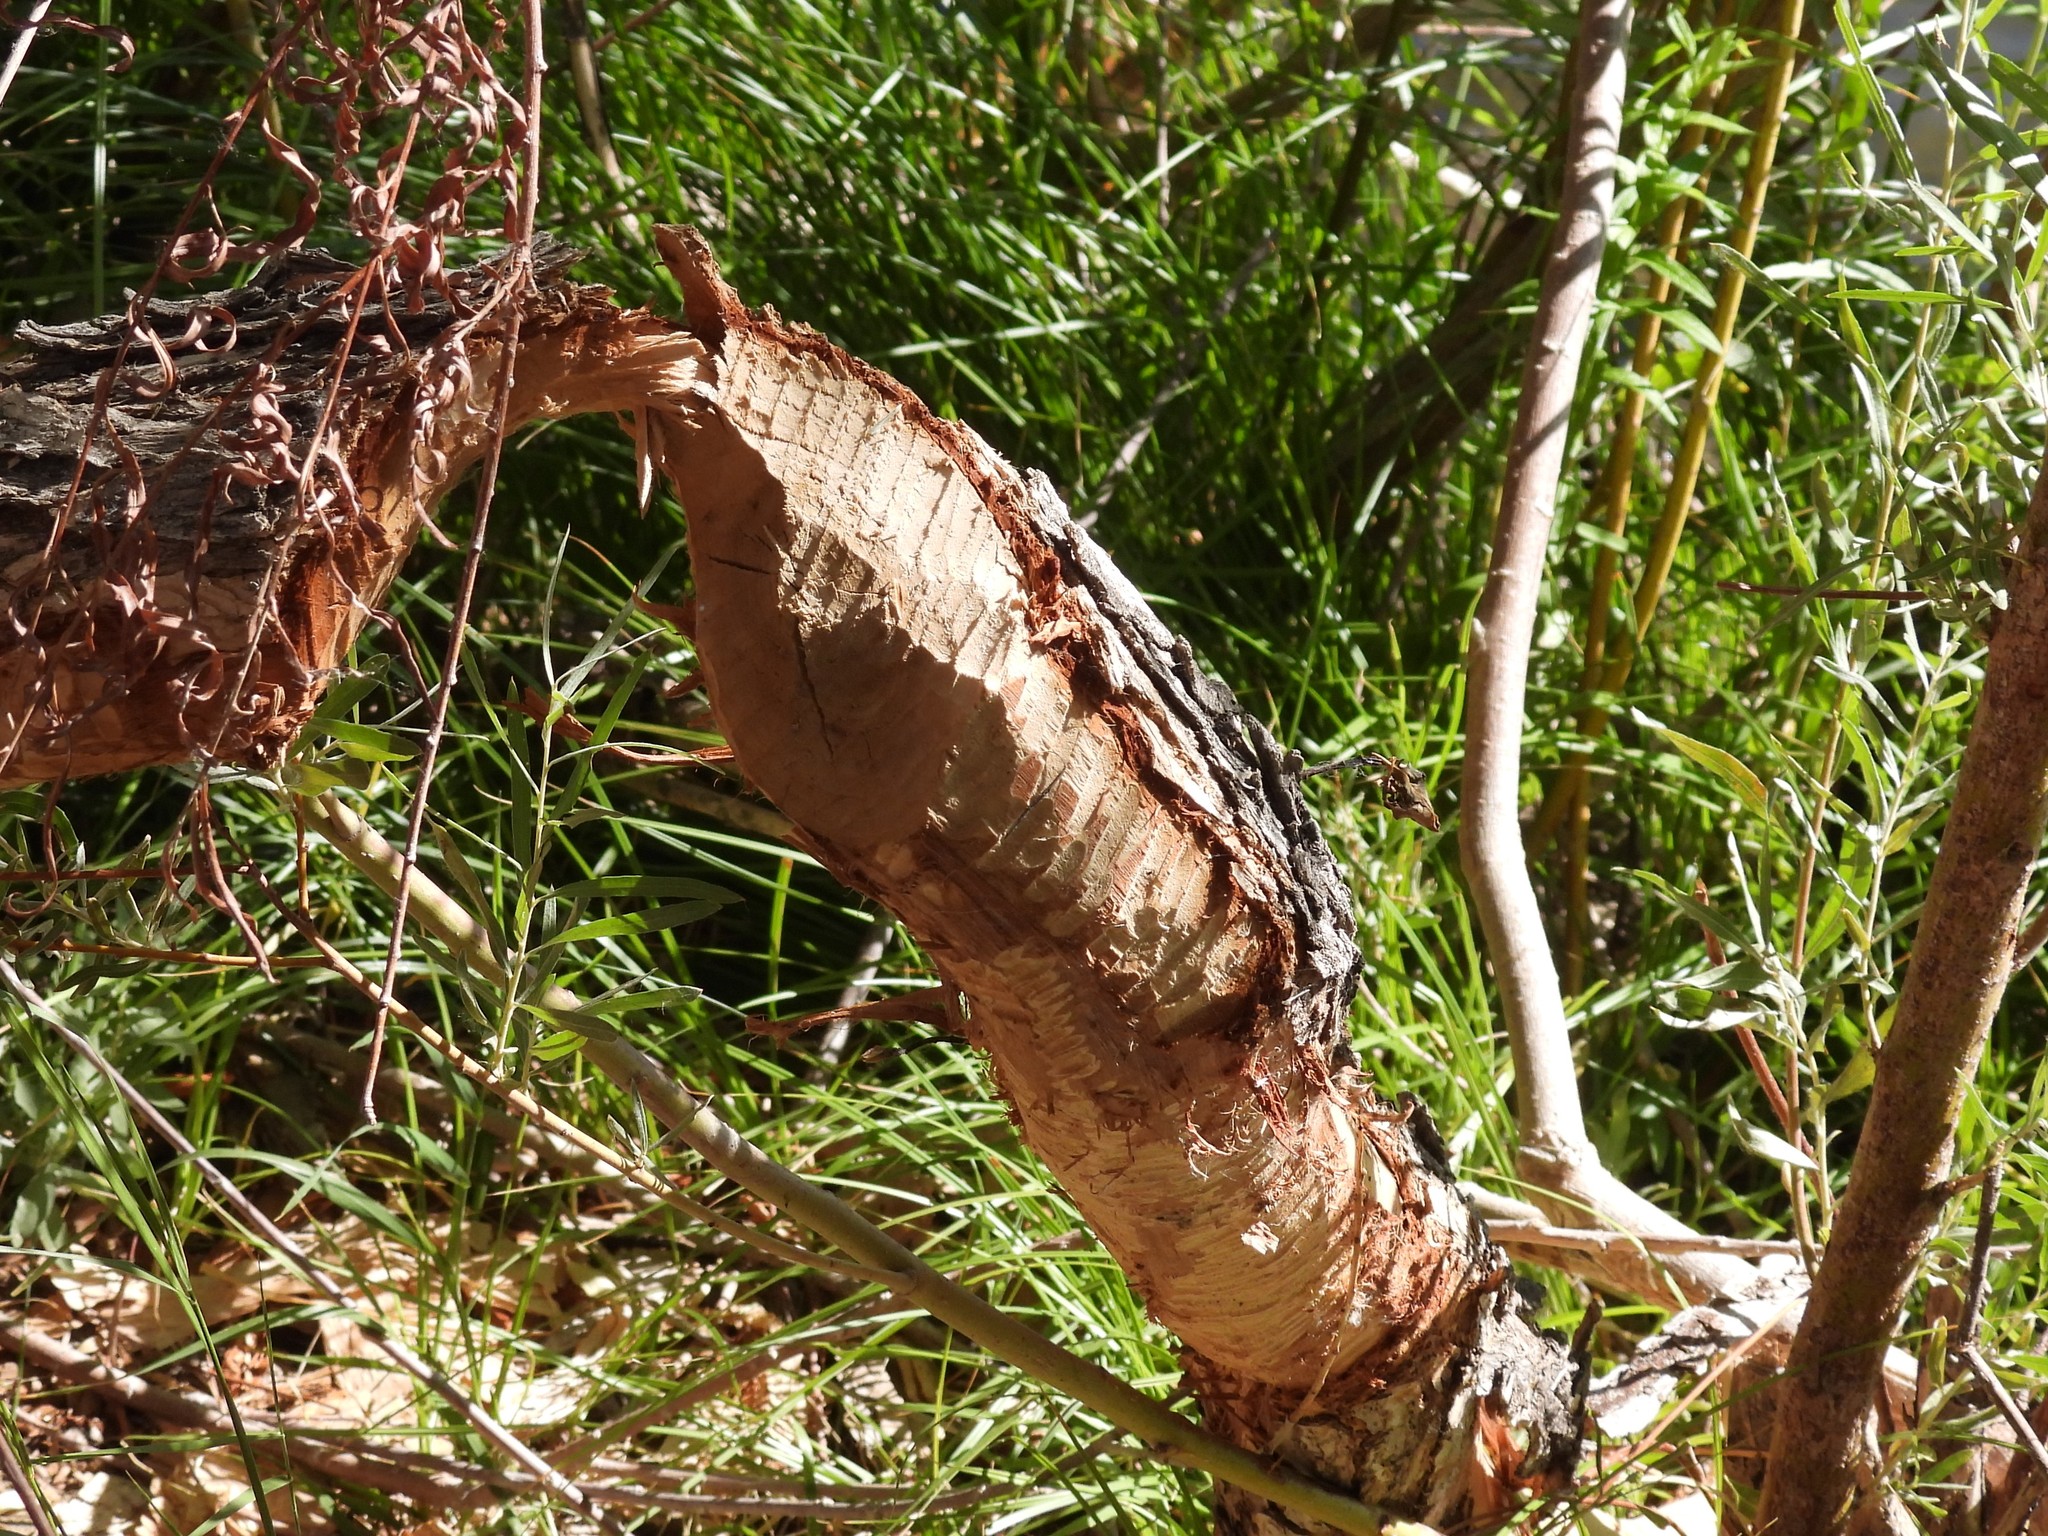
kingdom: Animalia
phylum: Chordata
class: Mammalia
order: Rodentia
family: Castoridae
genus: Castor
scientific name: Castor canadensis
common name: American beaver
